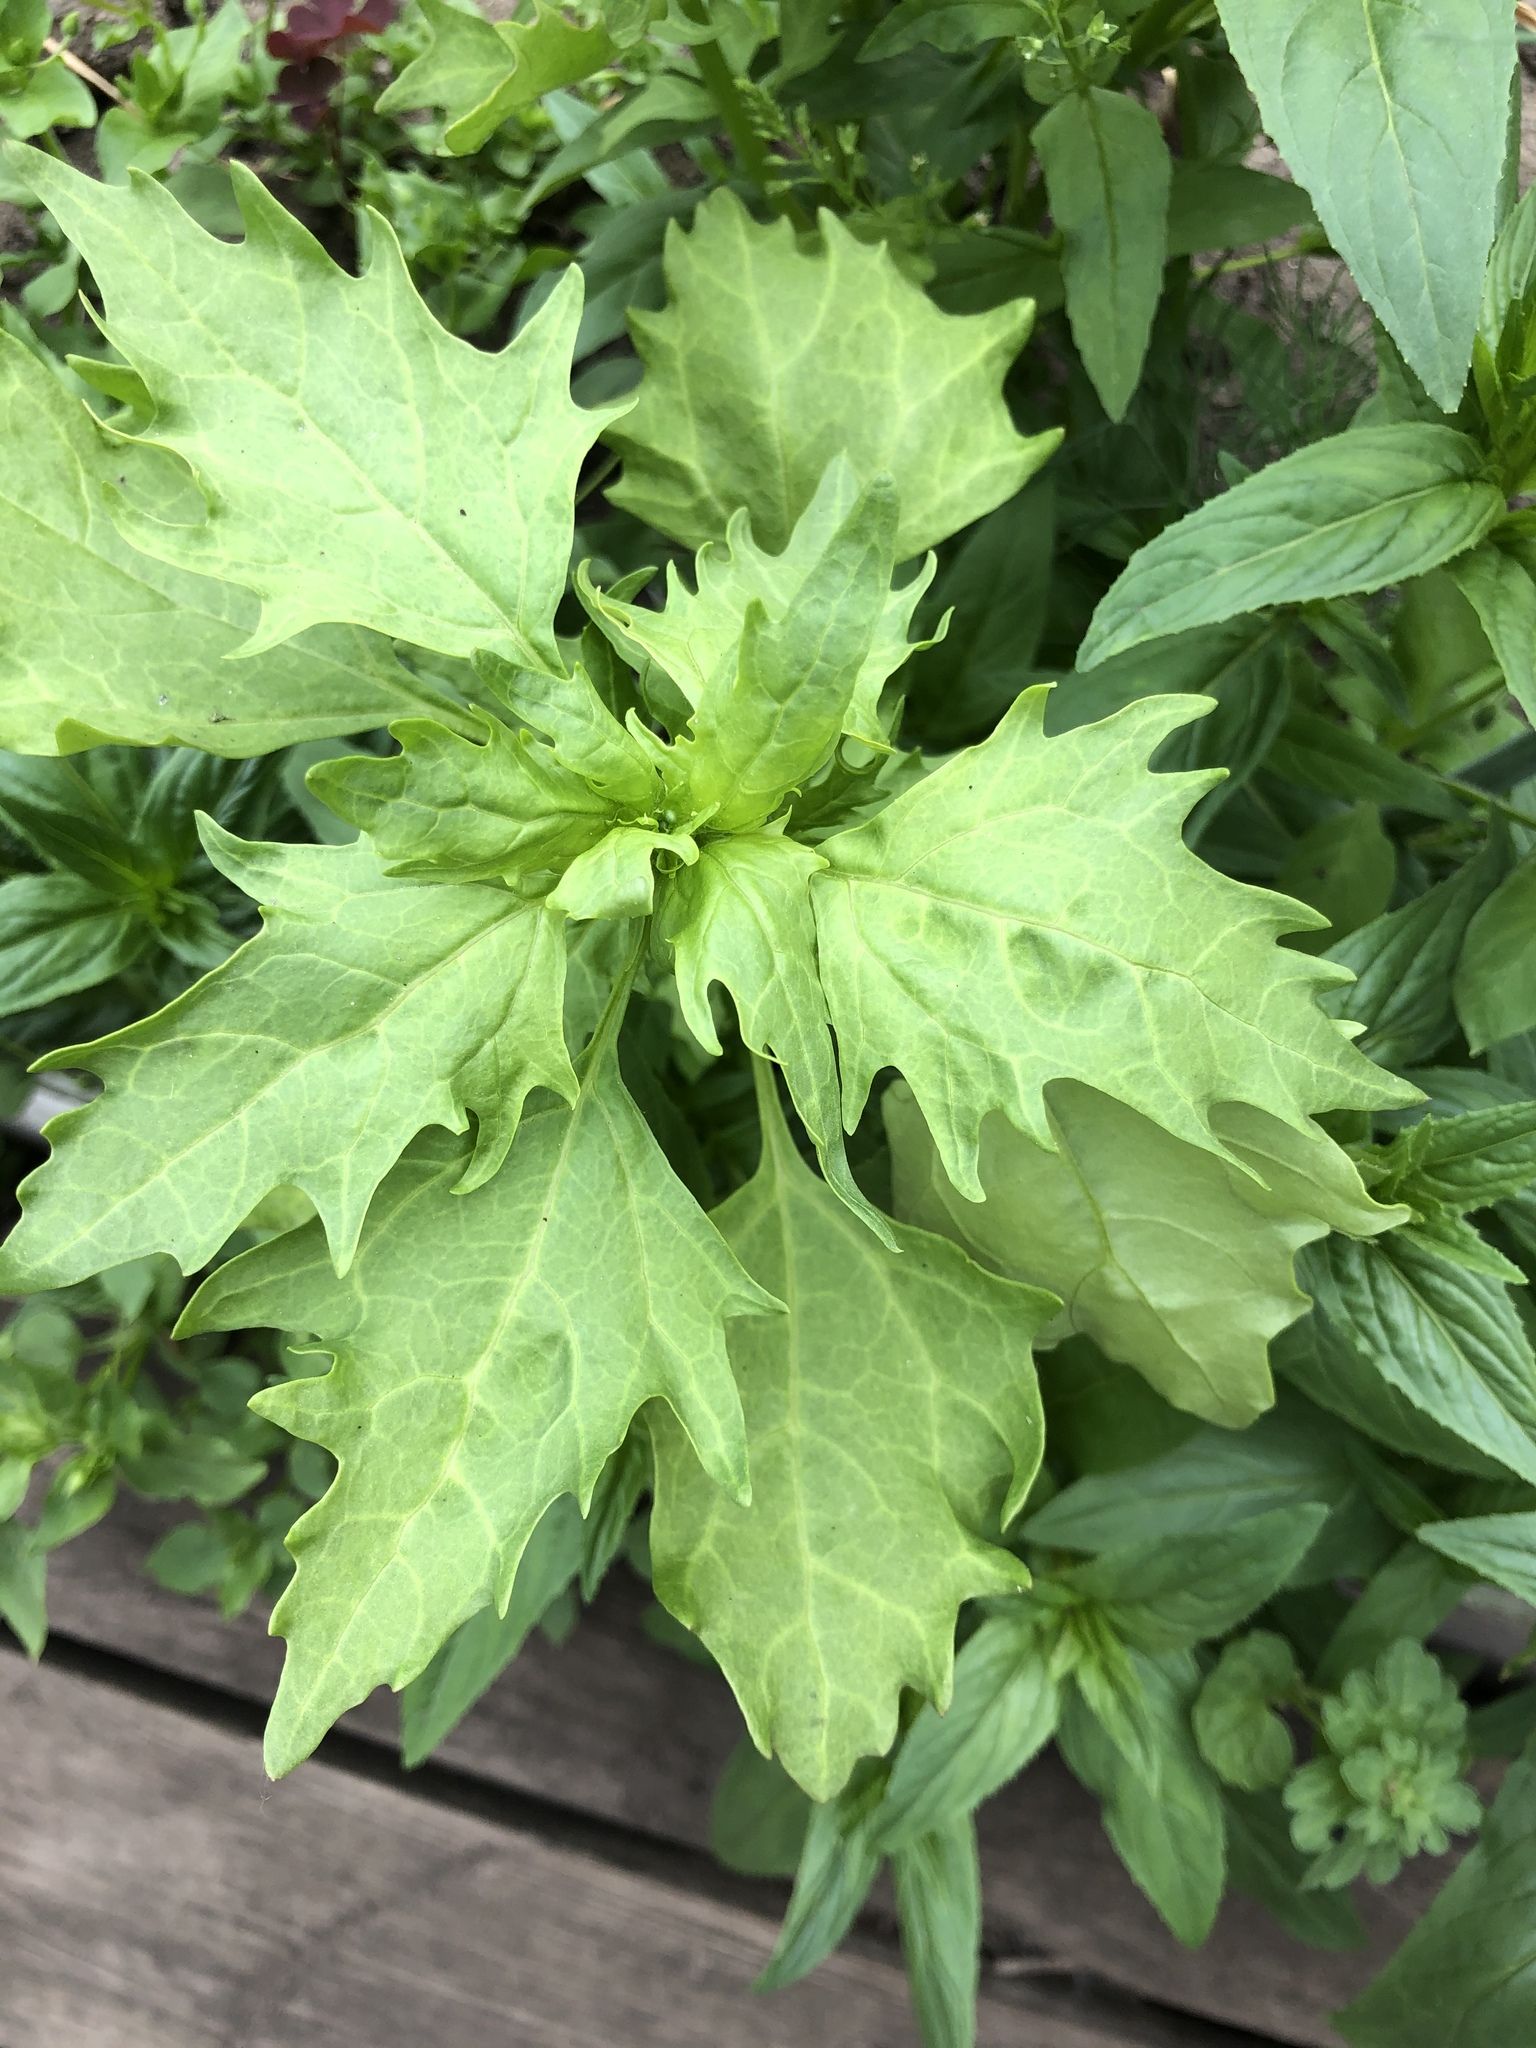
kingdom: Plantae
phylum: Tracheophyta
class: Magnoliopsida
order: Caryophyllales
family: Amaranthaceae
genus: Oxybasis
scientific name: Oxybasis rubra
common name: Red goosefoot
